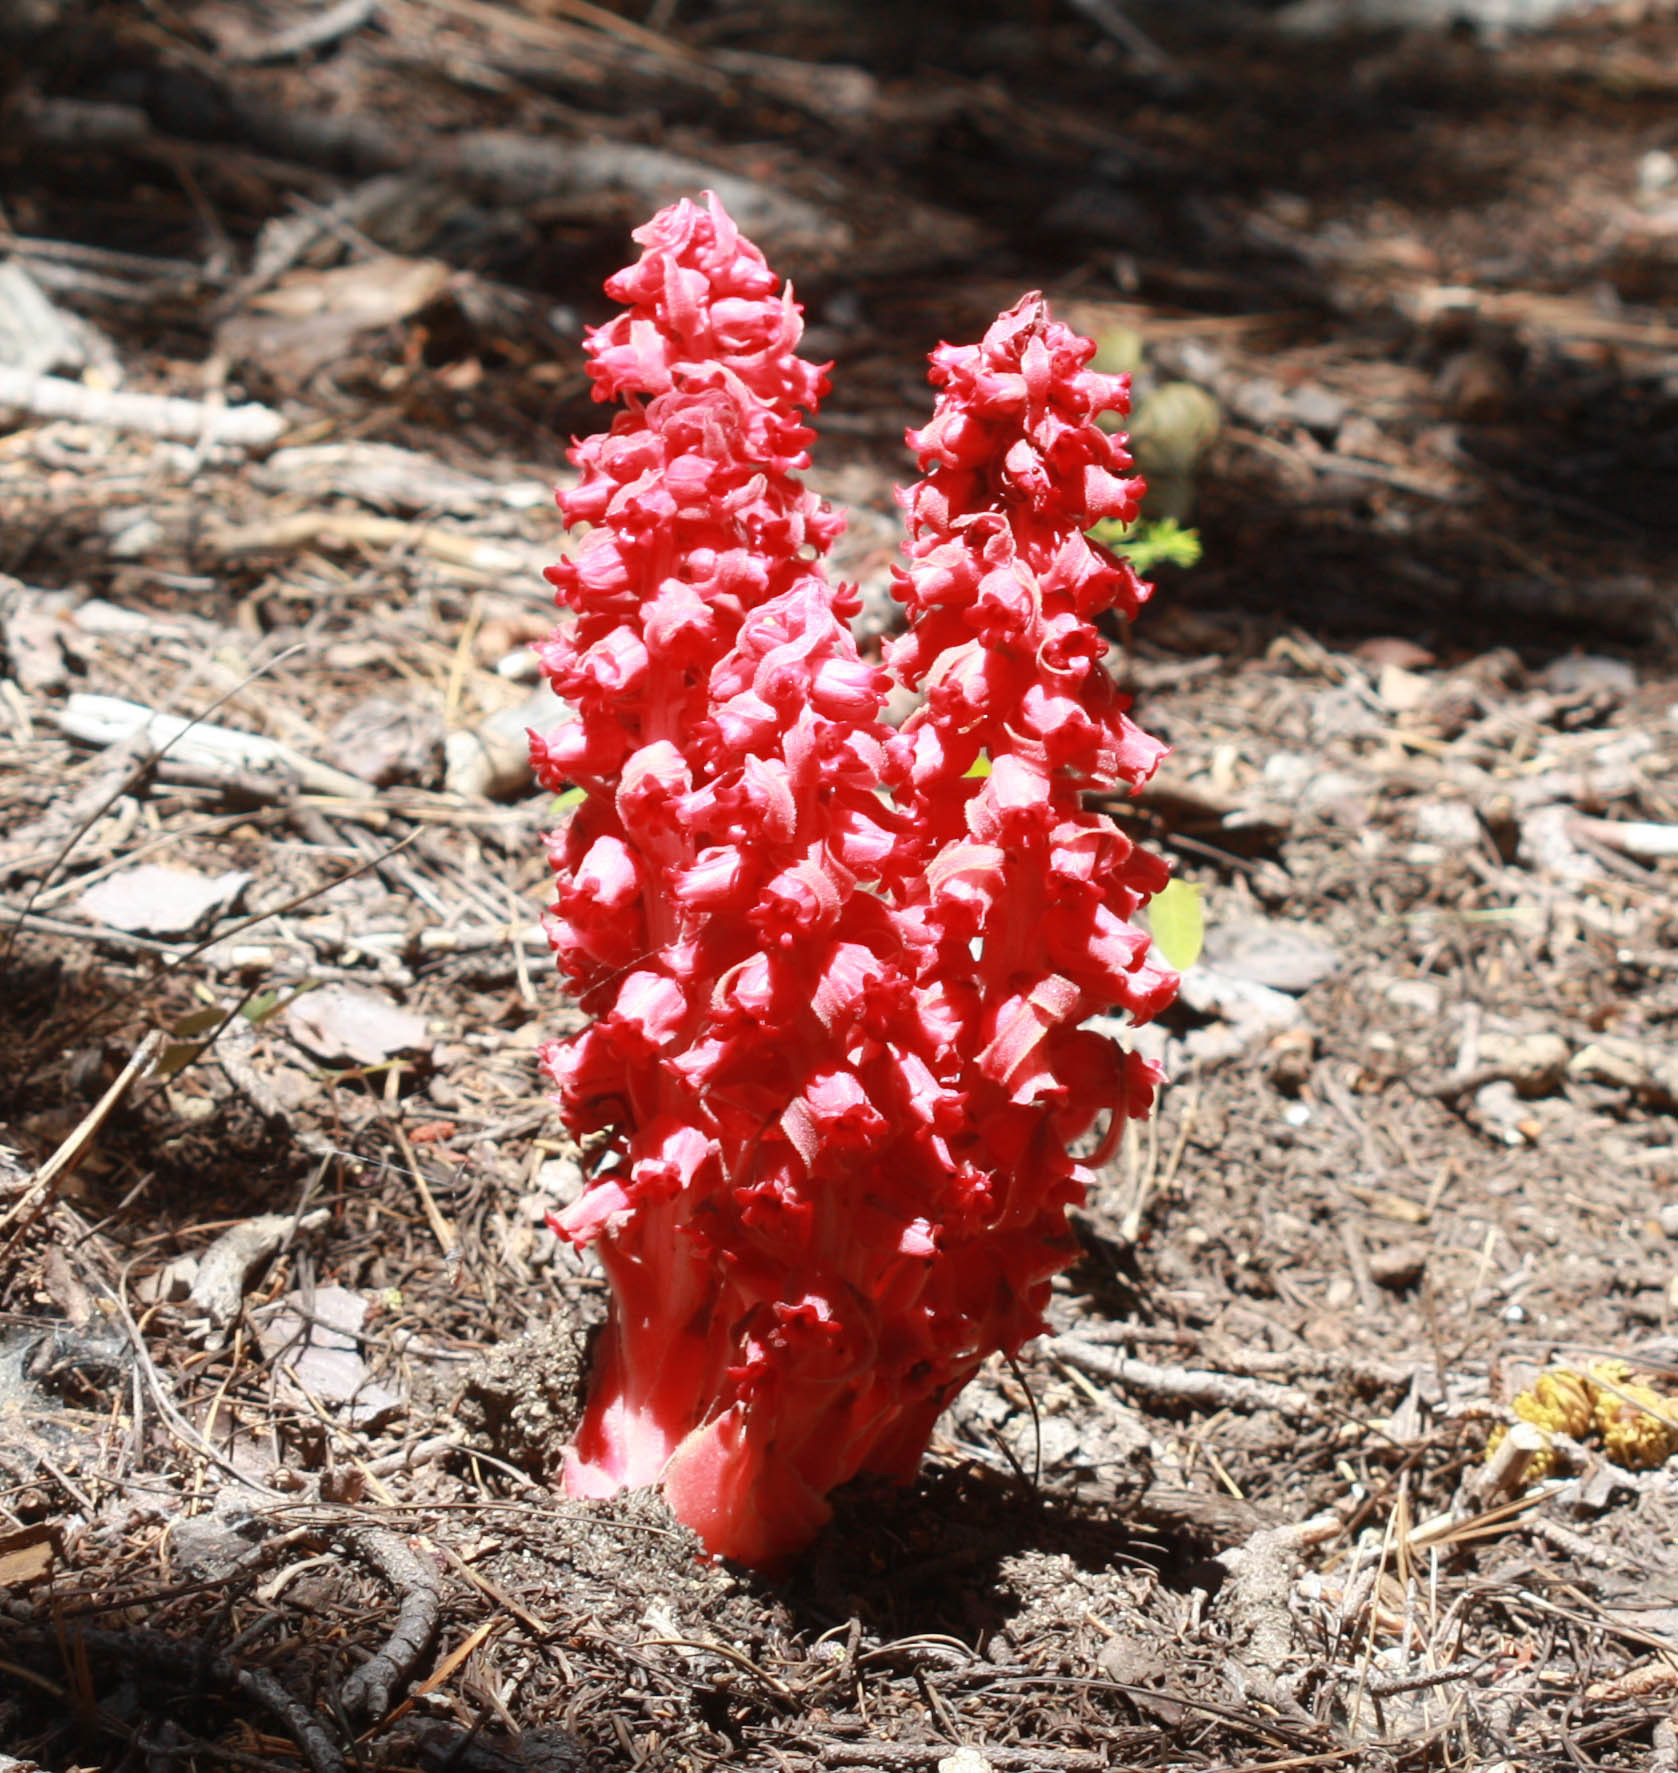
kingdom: Plantae
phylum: Tracheophyta
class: Magnoliopsida
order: Ericales
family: Ericaceae
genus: Sarcodes
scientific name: Sarcodes sanguinea
